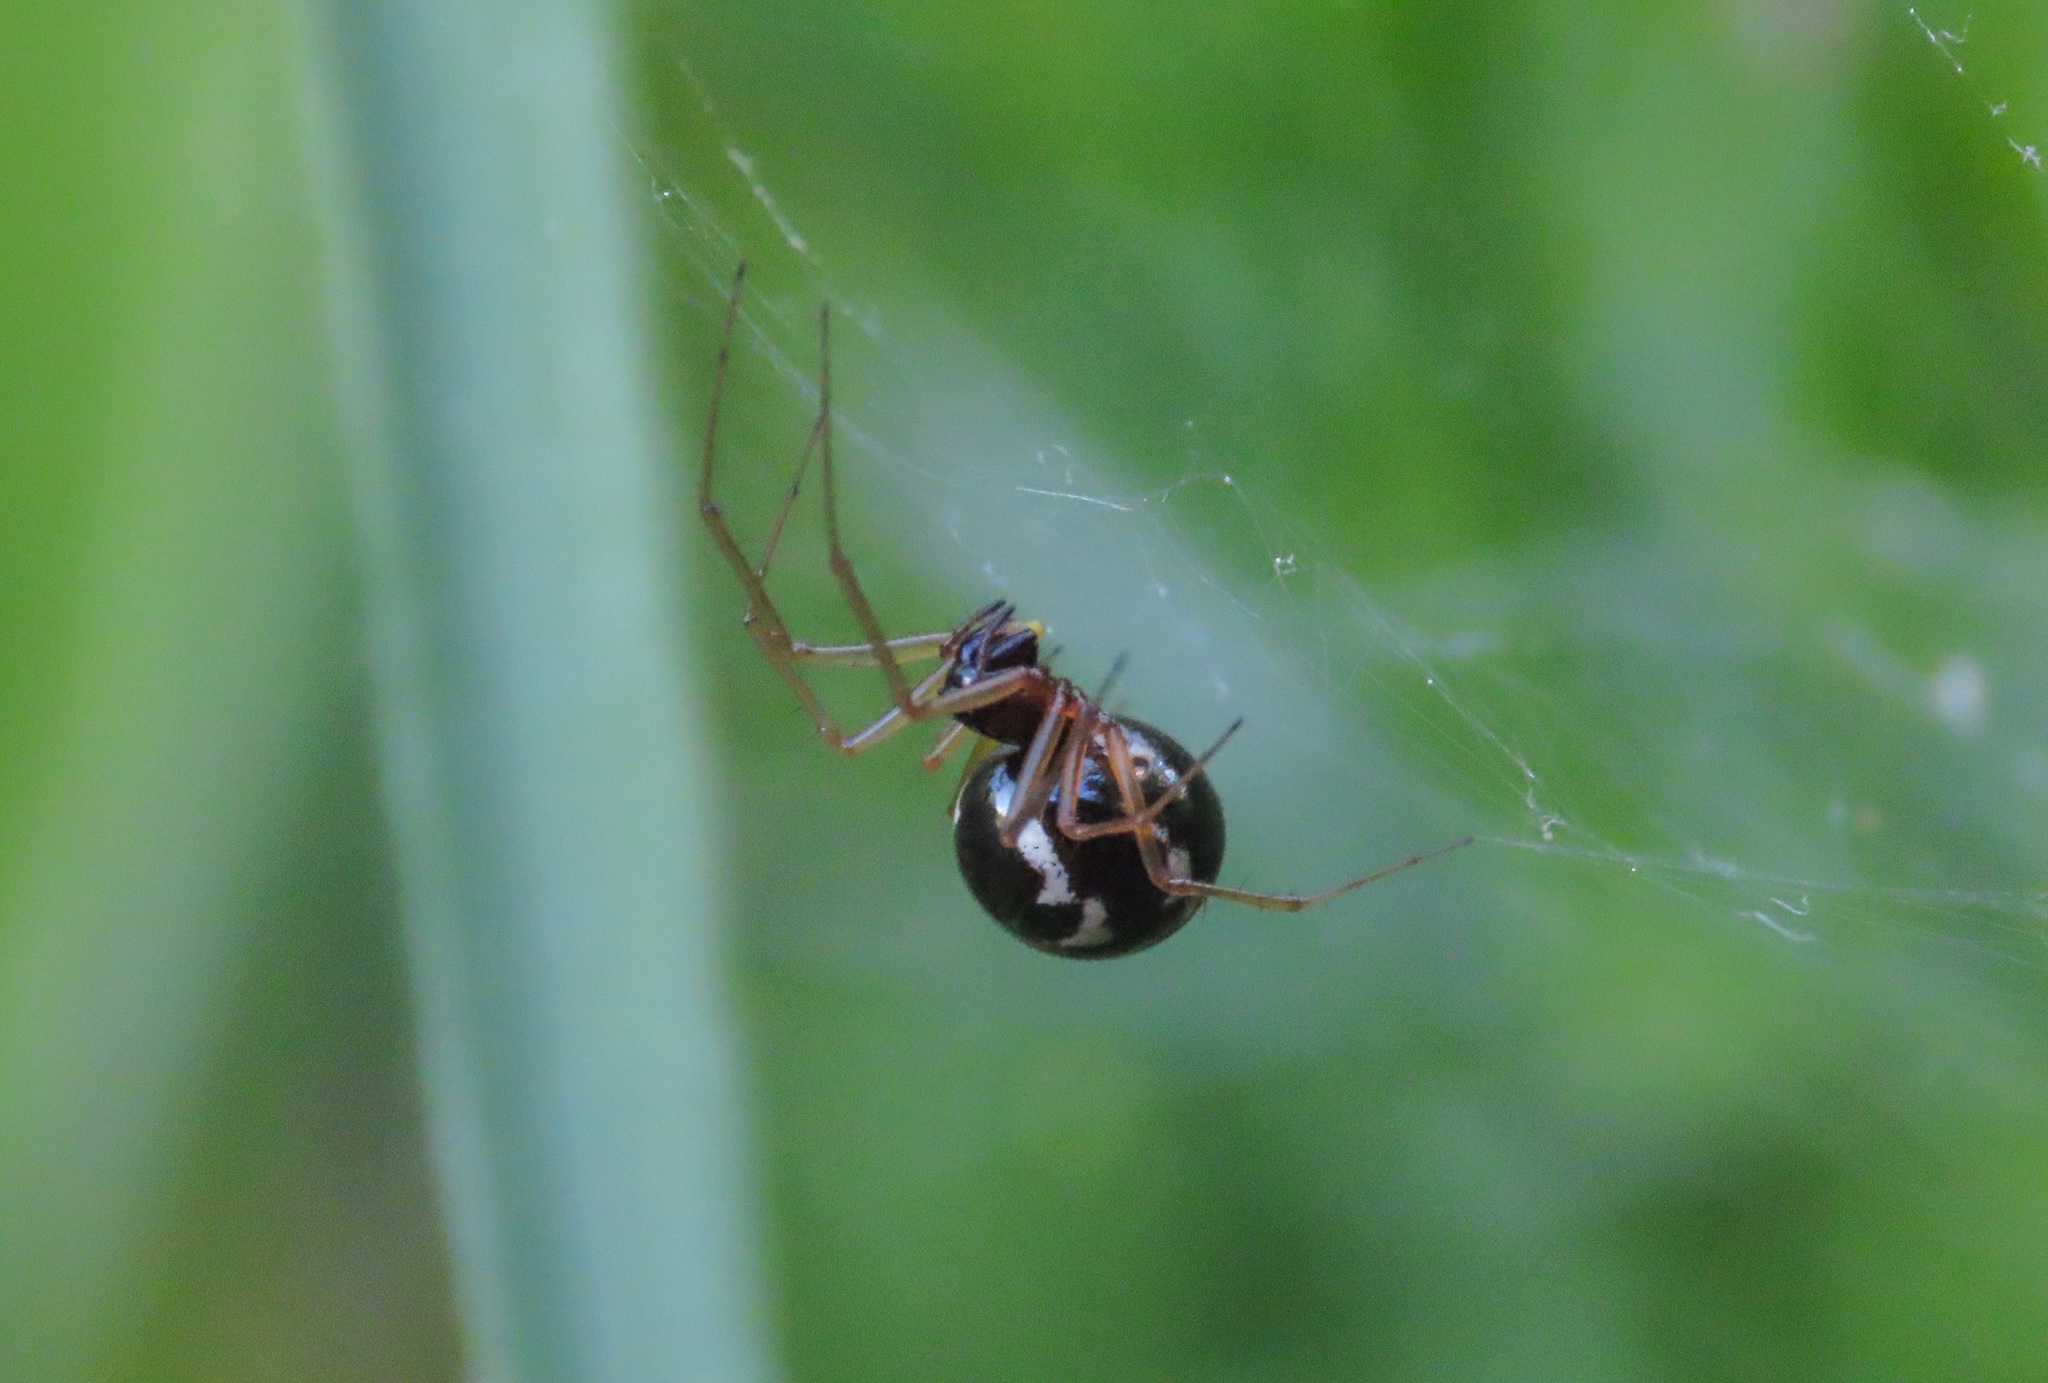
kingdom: Animalia
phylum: Arthropoda
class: Arachnida
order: Araneae
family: Linyphiidae
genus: Linyphia
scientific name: Linyphia hortensis
